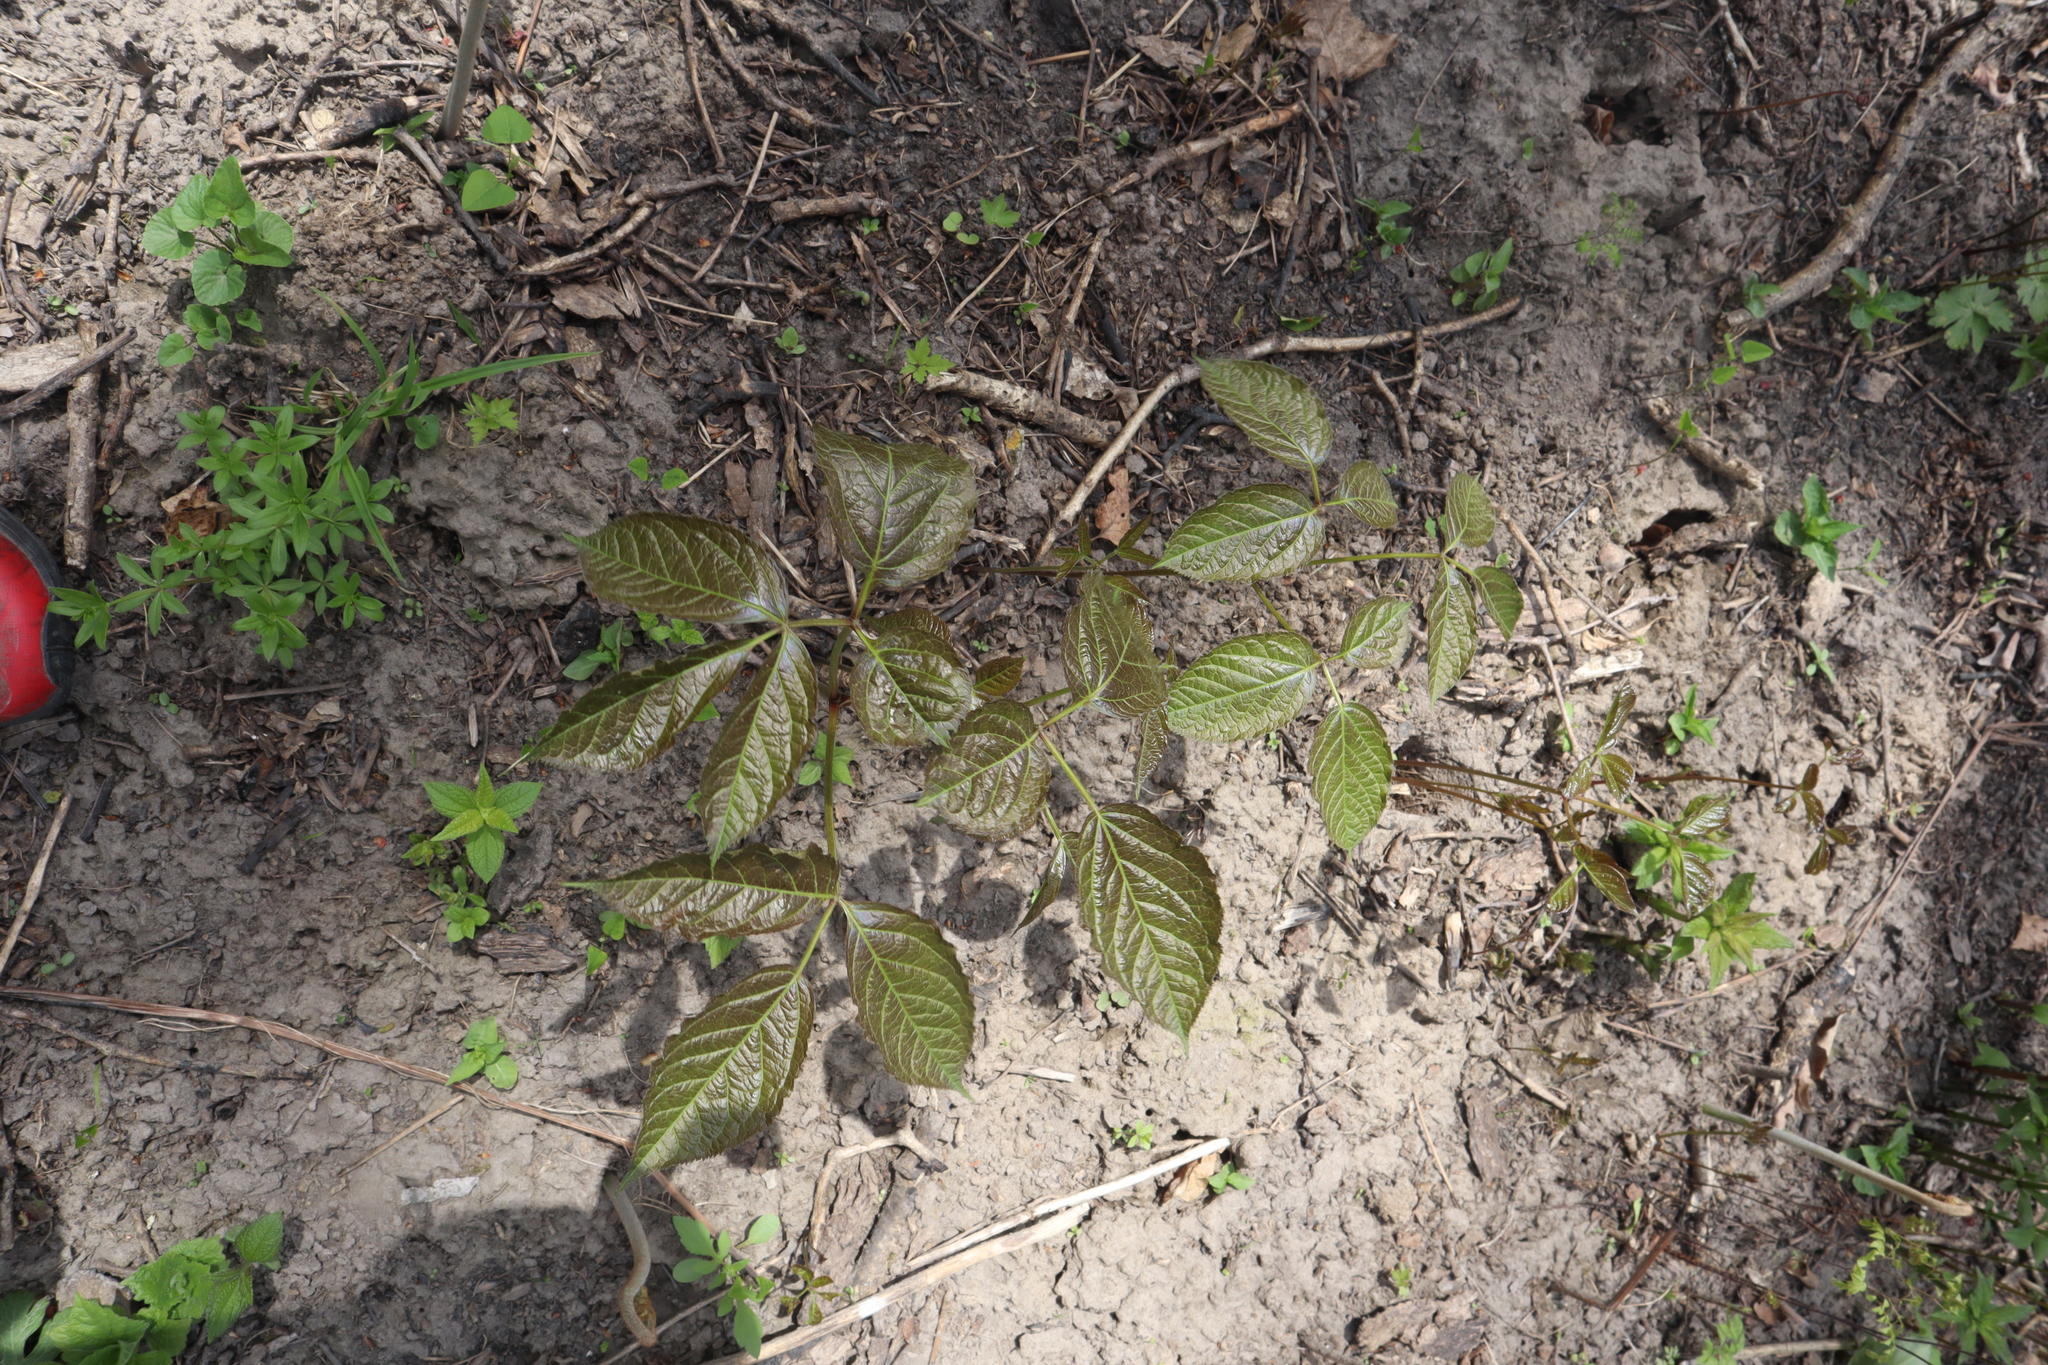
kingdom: Plantae
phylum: Tracheophyta
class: Magnoliopsida
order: Apiales
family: Araliaceae
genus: Aralia
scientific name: Aralia nudicaulis
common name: Wild sarsaparilla
